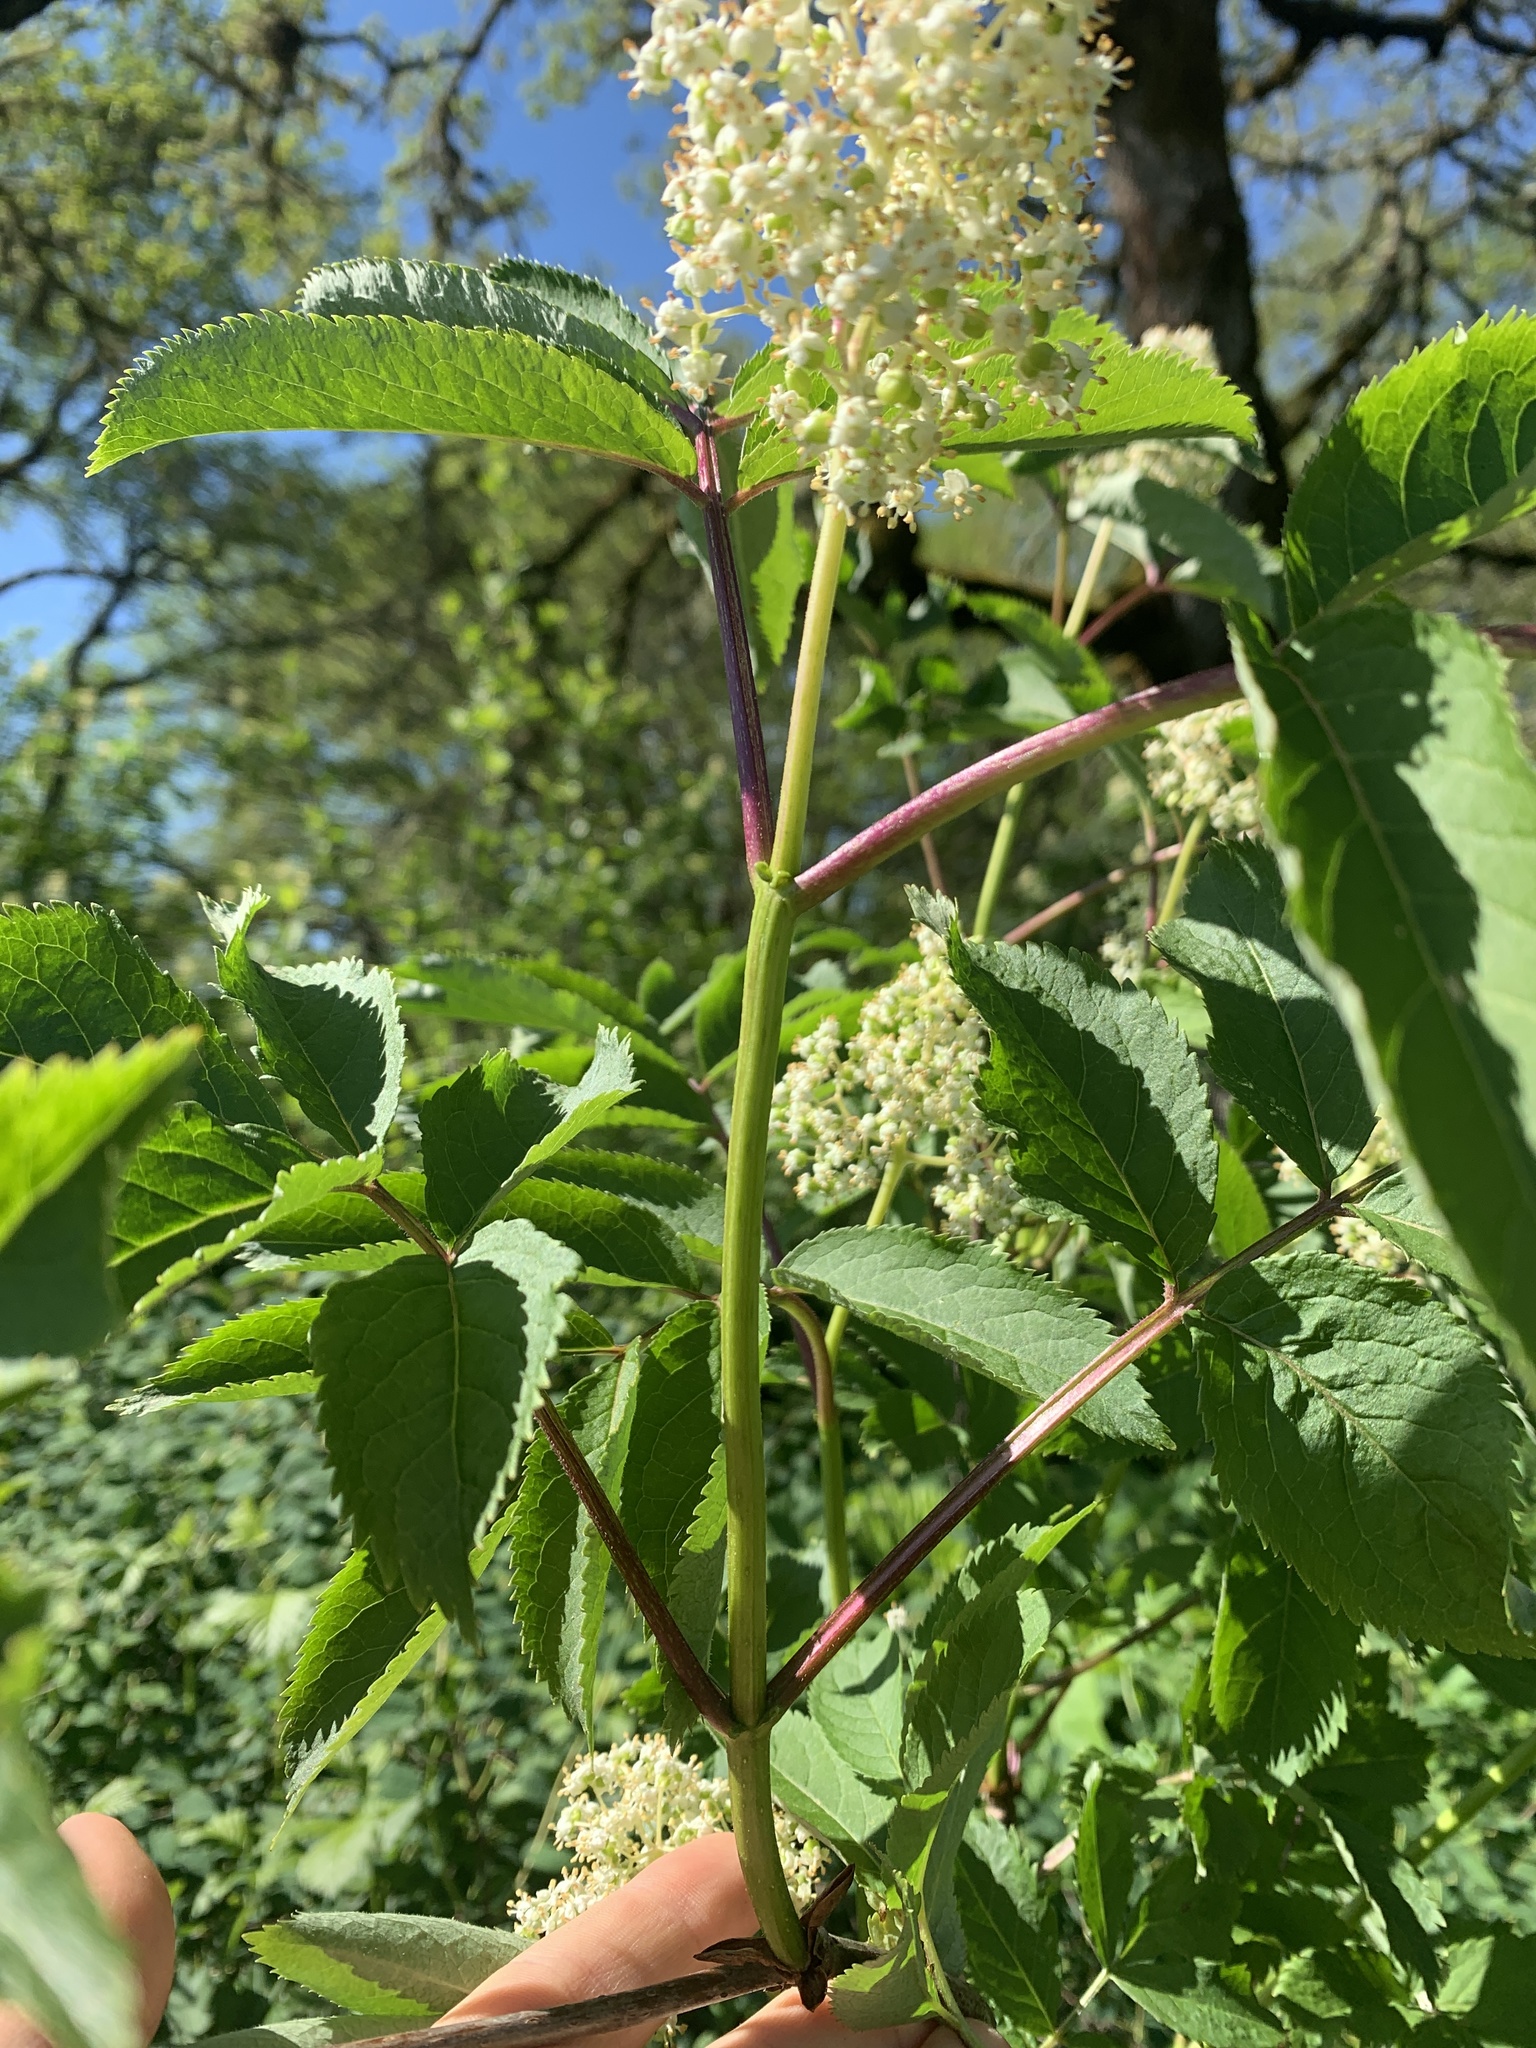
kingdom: Plantae
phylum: Tracheophyta
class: Magnoliopsida
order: Dipsacales
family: Viburnaceae
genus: Sambucus
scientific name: Sambucus racemosa
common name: Red-berried elder
